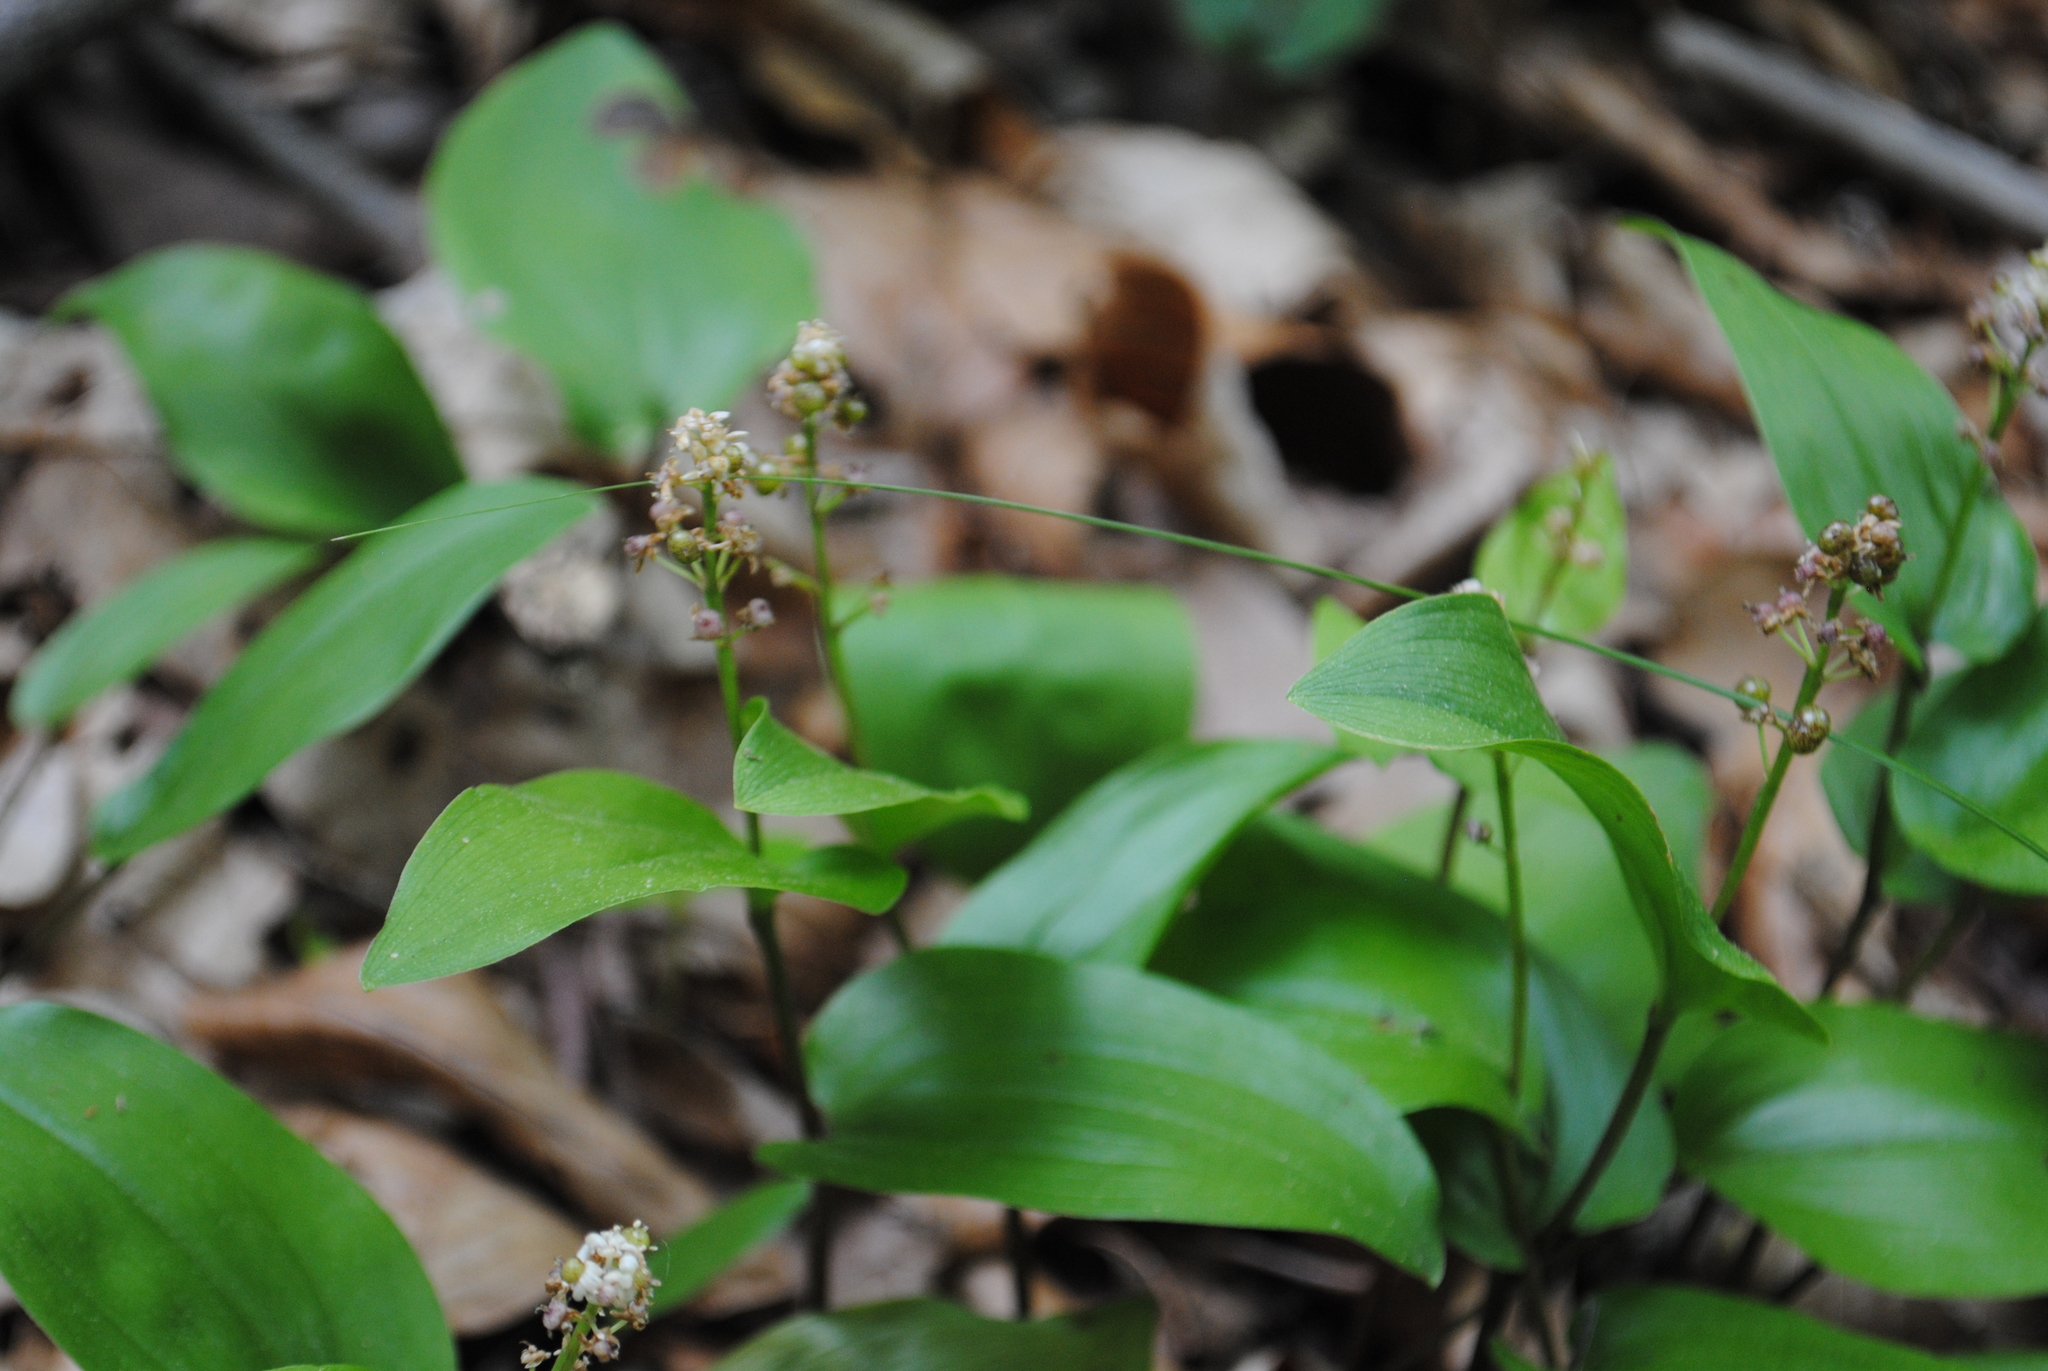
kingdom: Plantae
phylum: Tracheophyta
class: Liliopsida
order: Asparagales
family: Asparagaceae
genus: Maianthemum
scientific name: Maianthemum canadense
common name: False lily-of-the-valley
